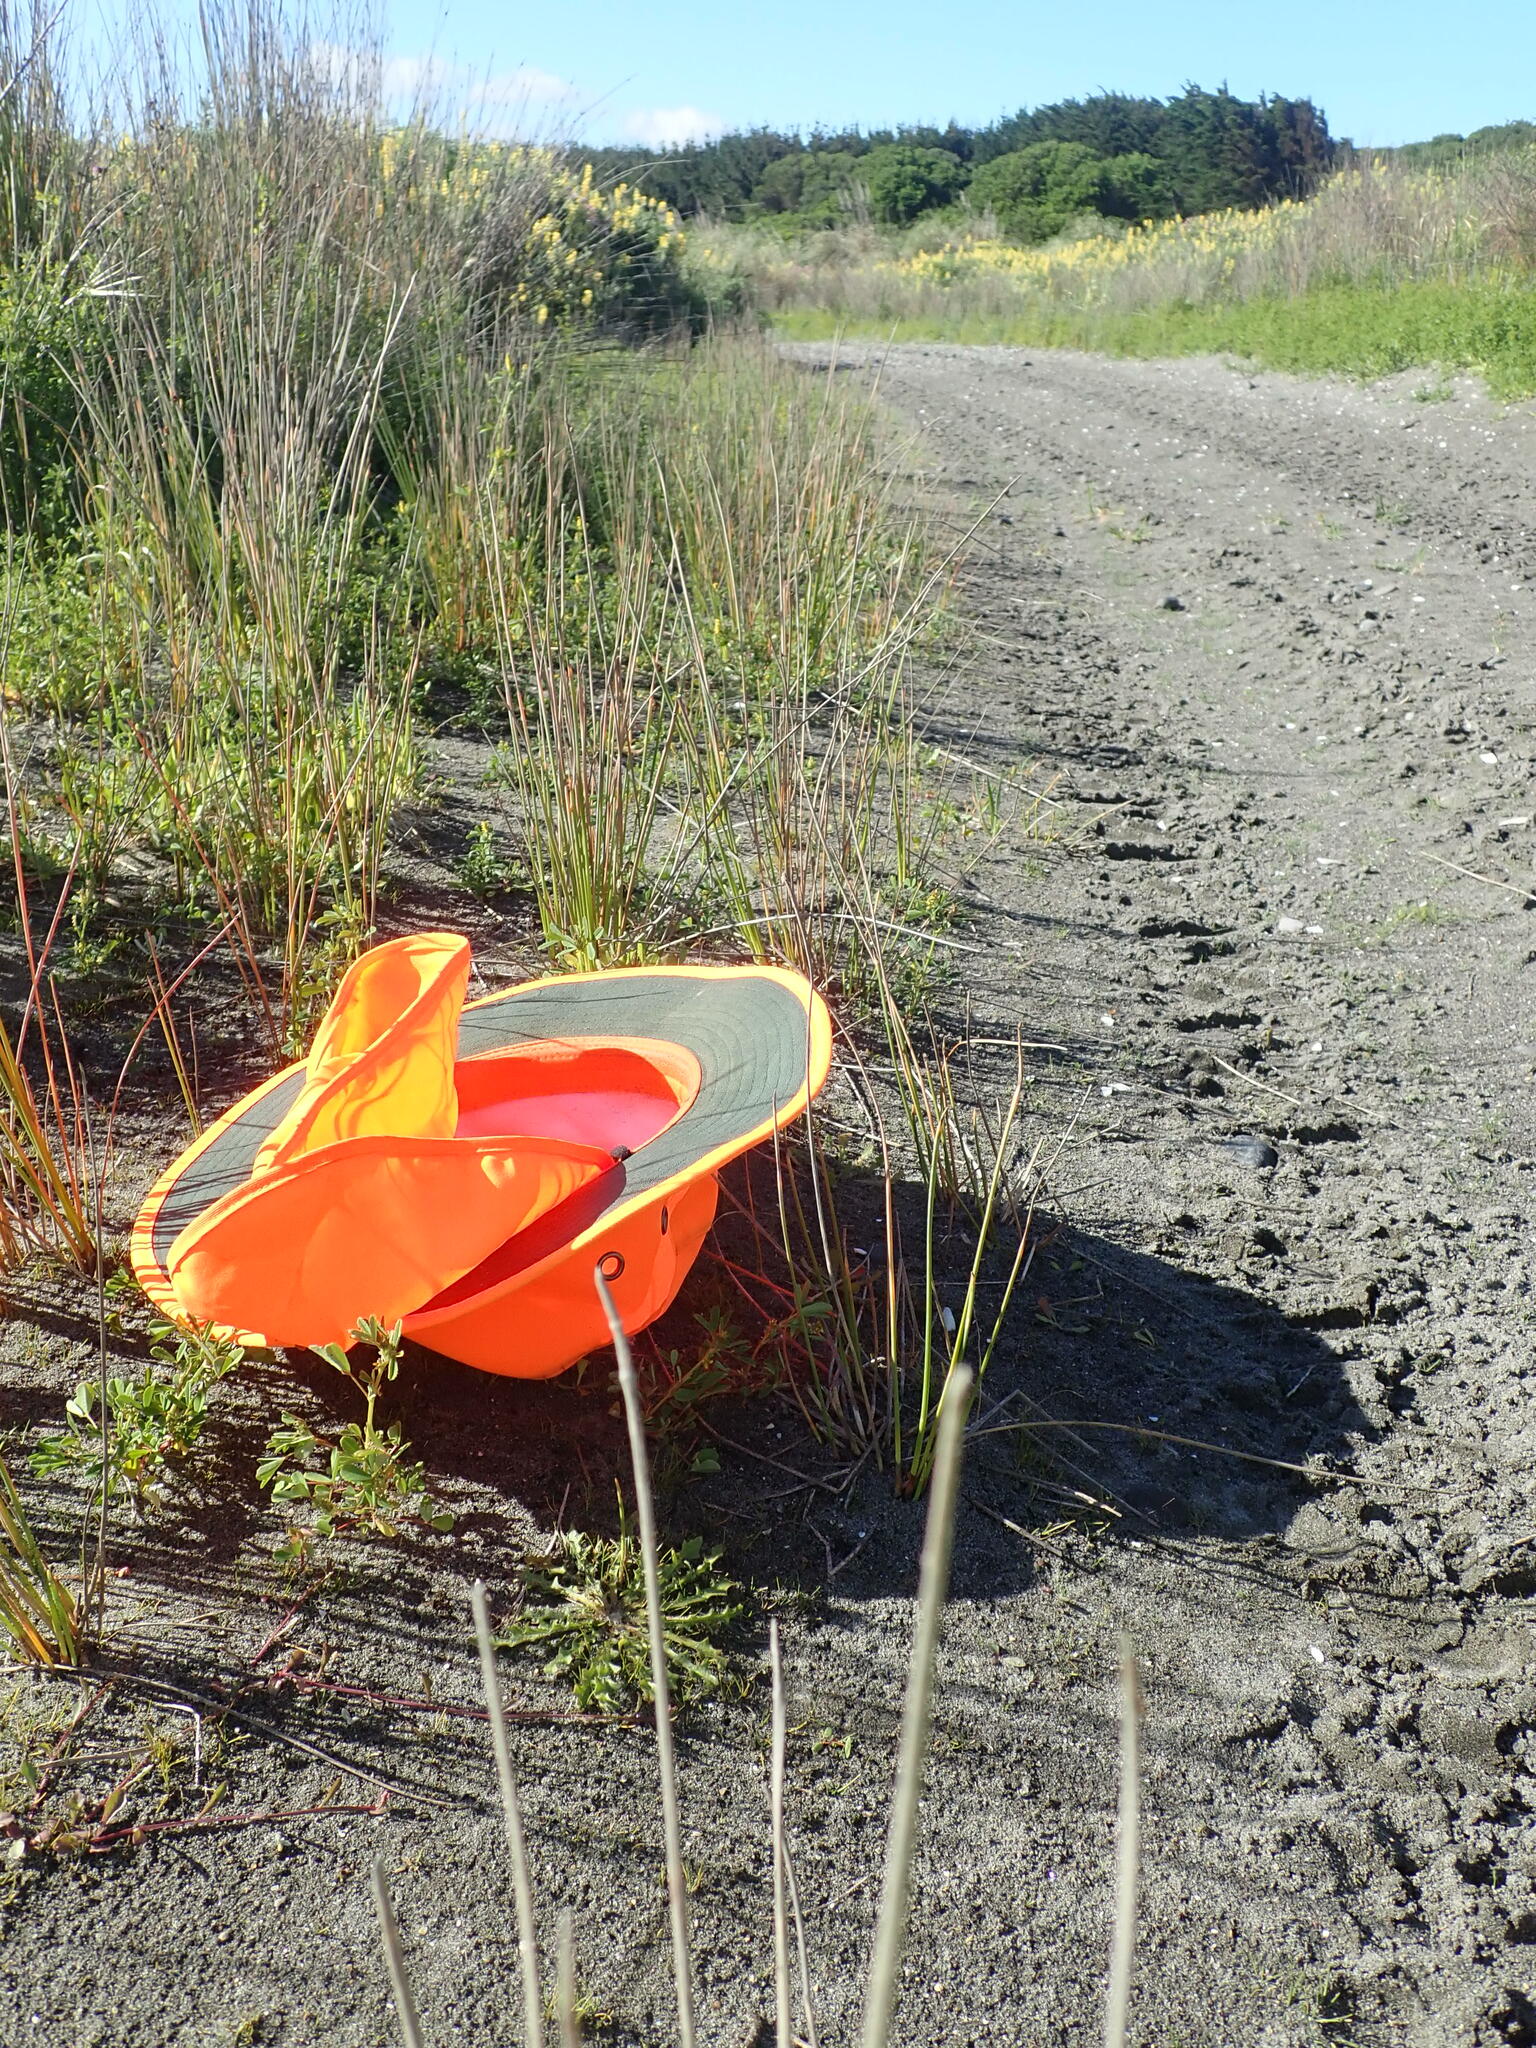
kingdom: Animalia
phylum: Arthropoda
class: Arachnida
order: Araneae
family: Lycosidae
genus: Anoteropsis
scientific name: Anoteropsis litoralis
